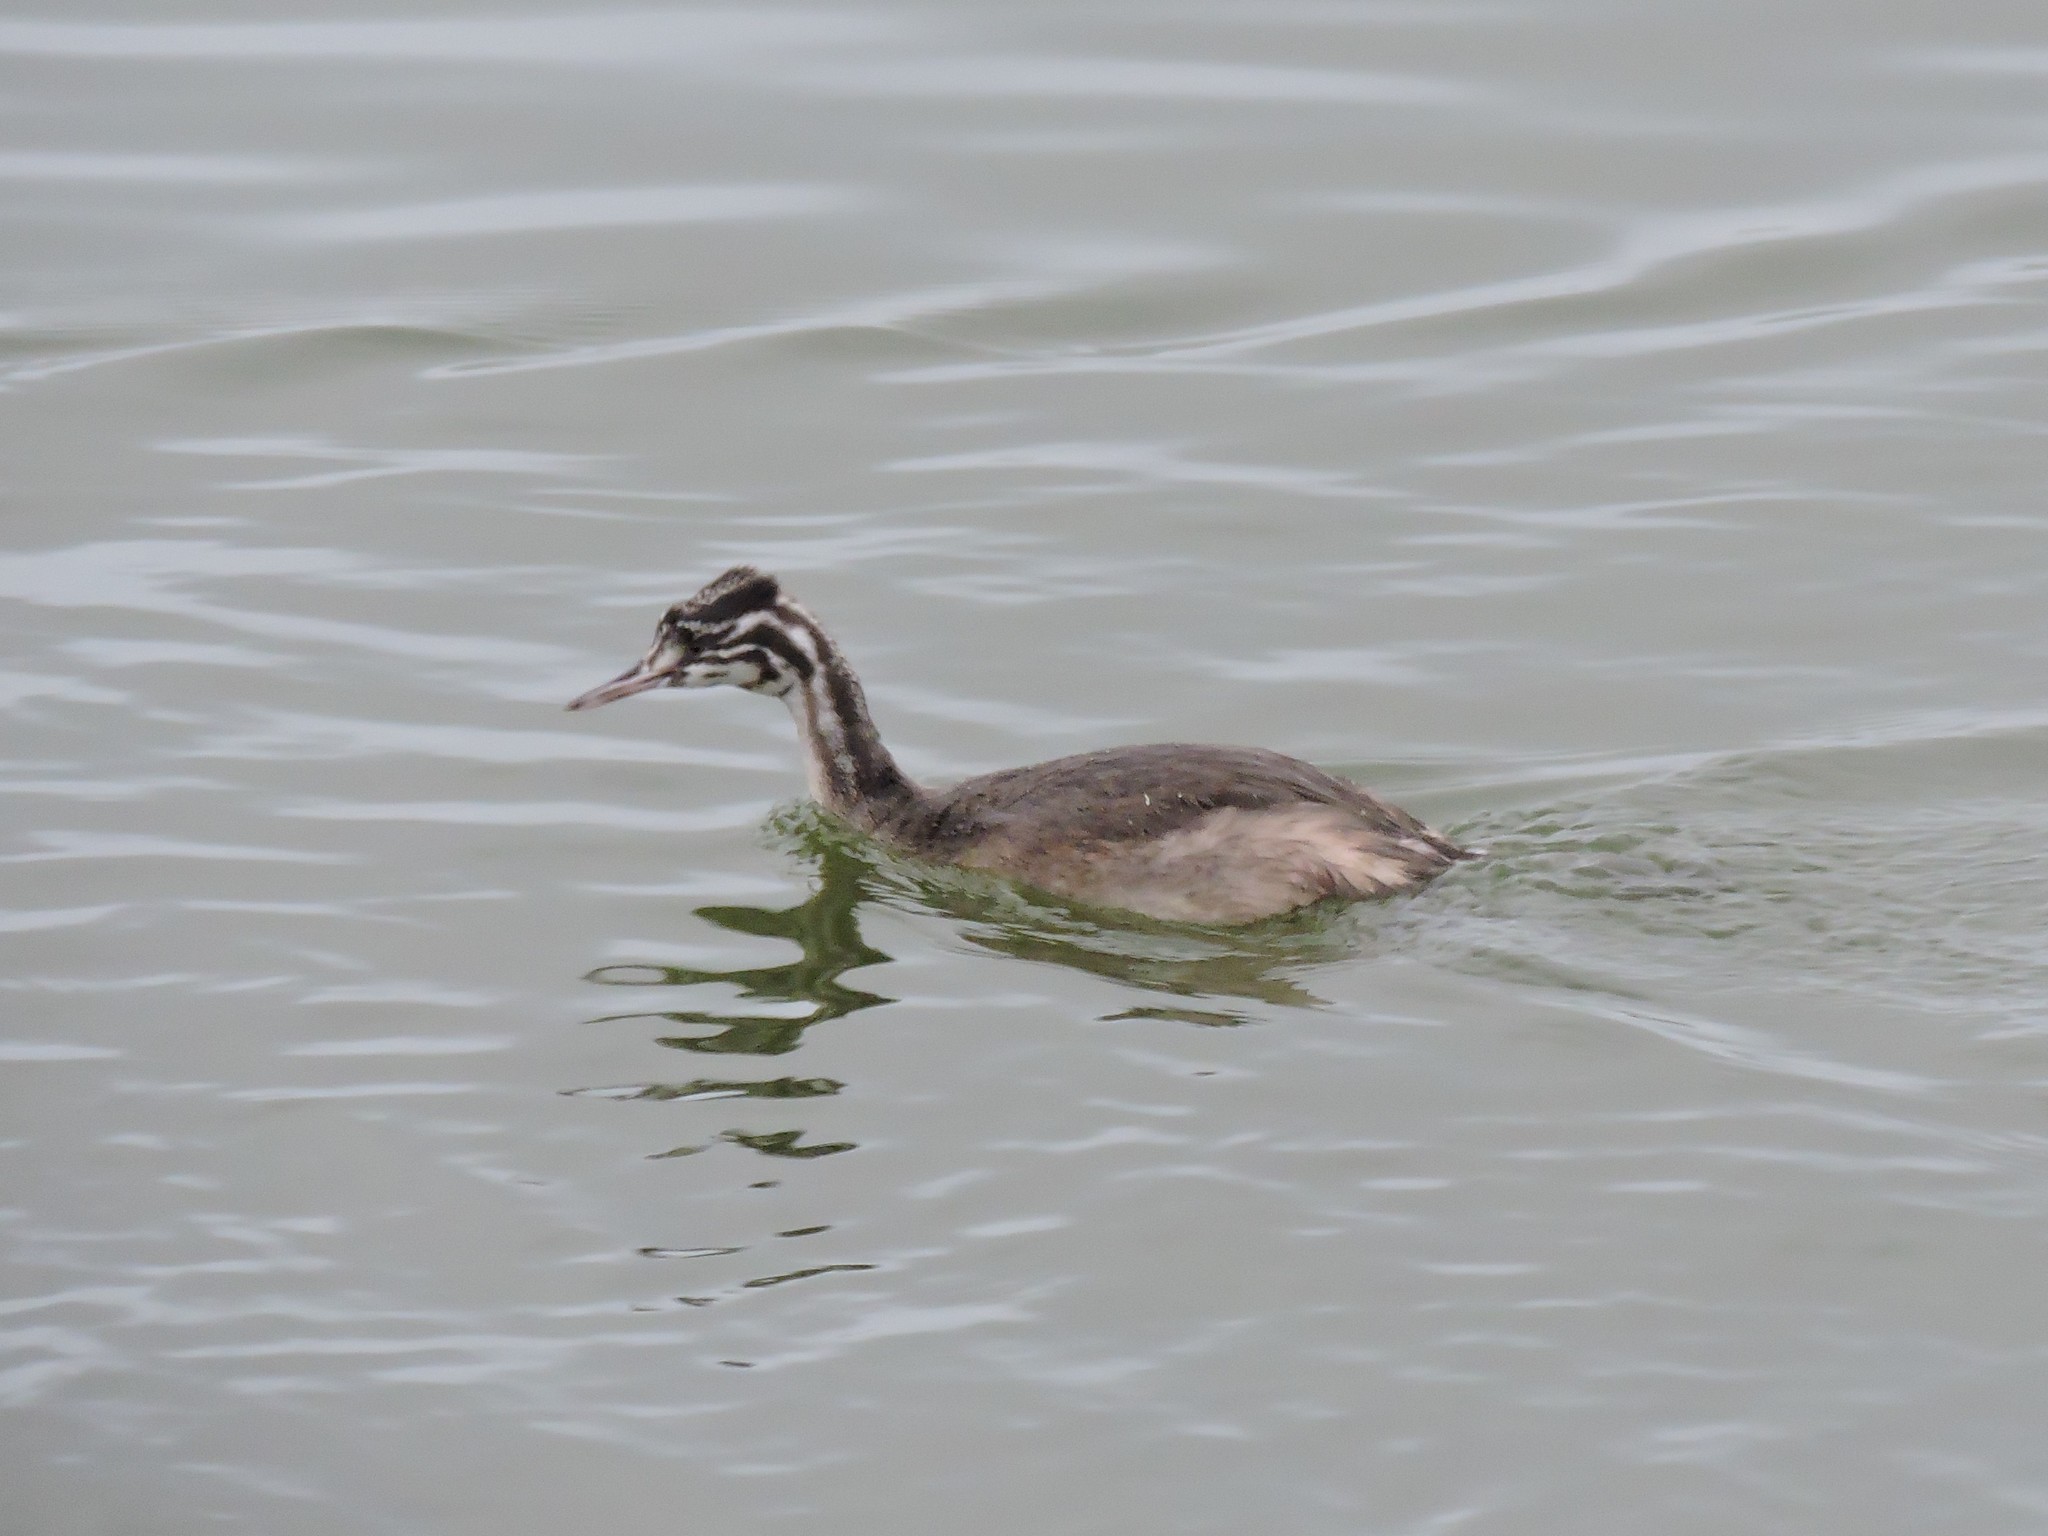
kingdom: Animalia
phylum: Chordata
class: Aves
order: Podicipediformes
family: Podicipedidae
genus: Podiceps
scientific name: Podiceps cristatus
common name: Great crested grebe
